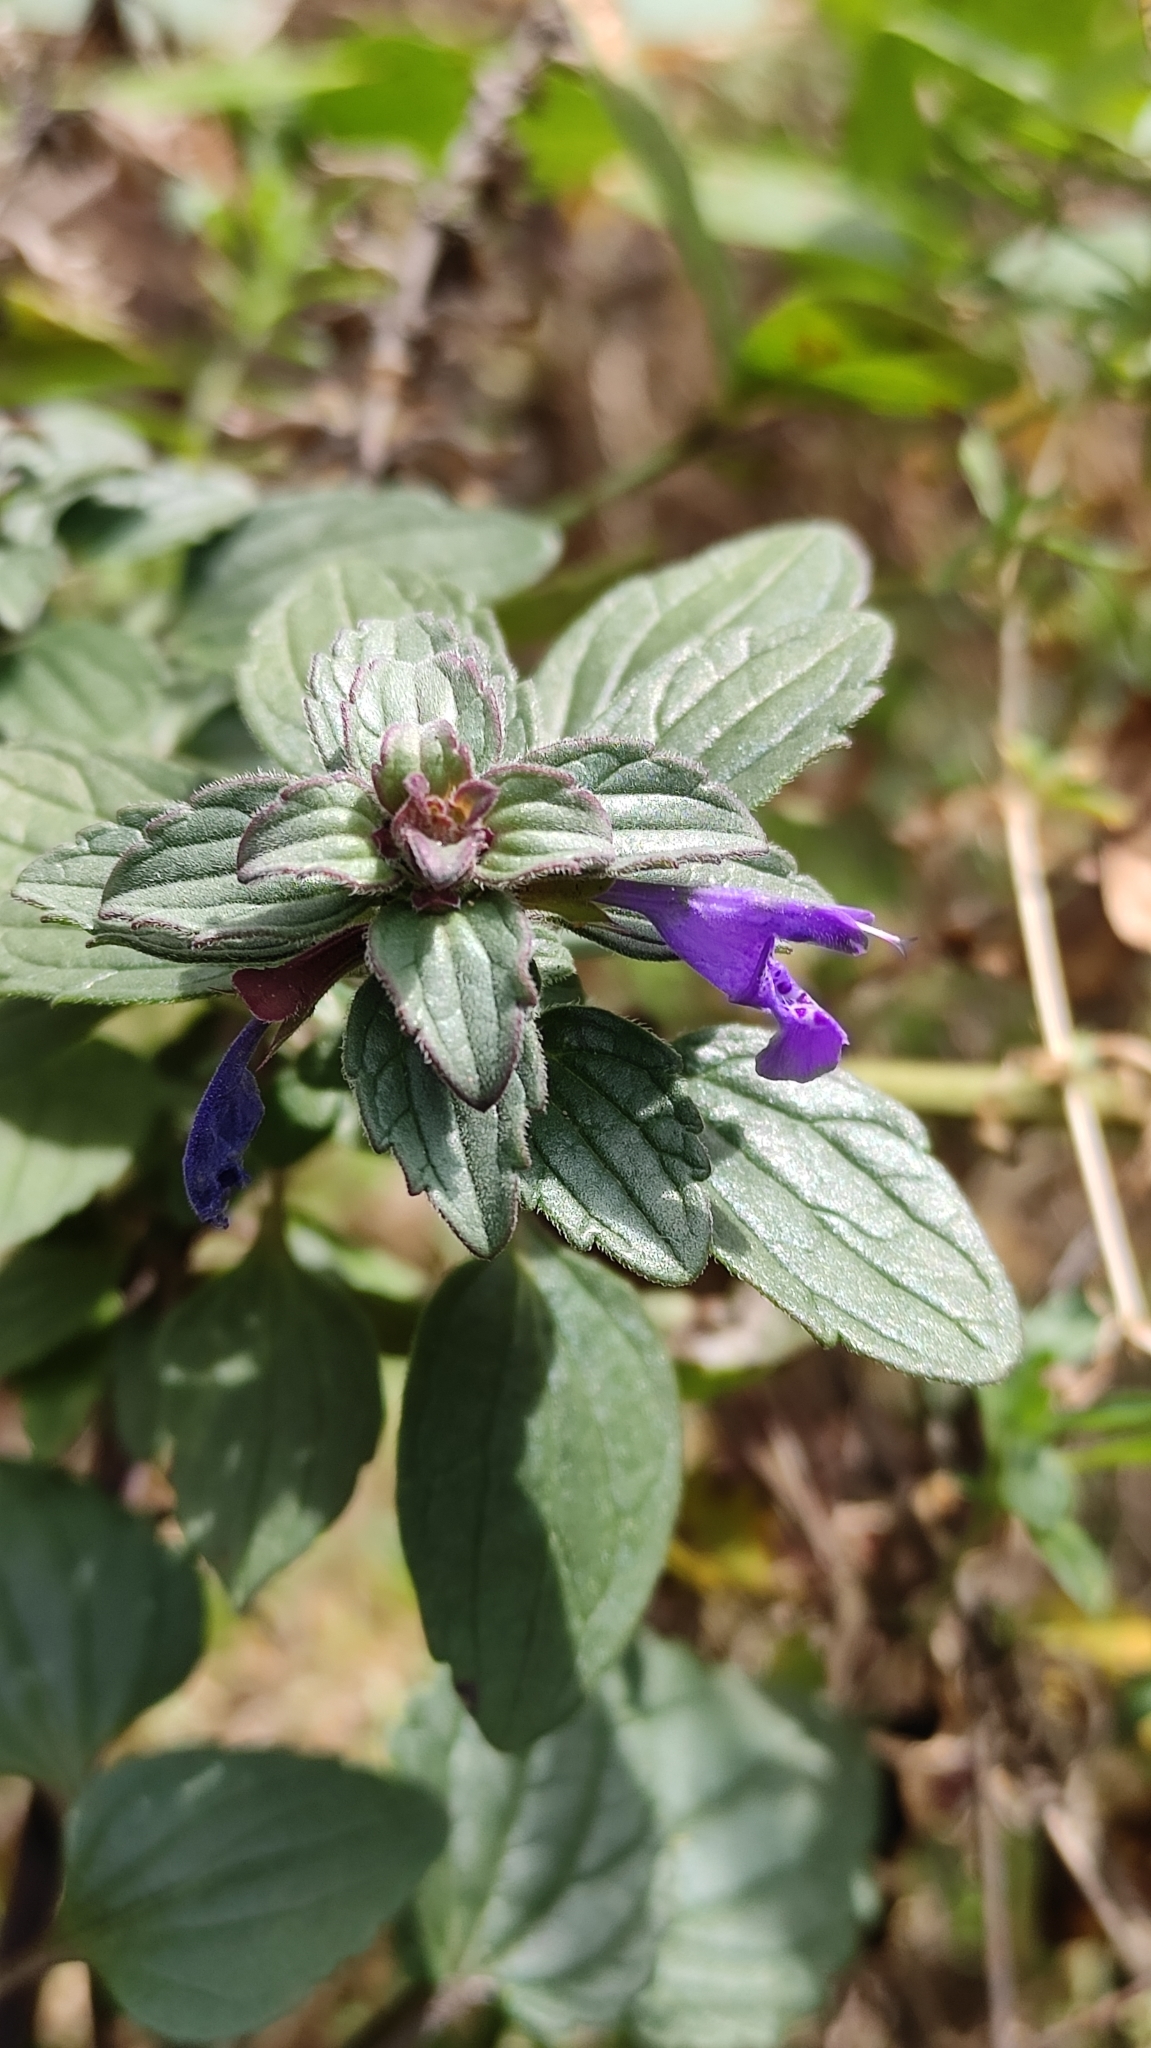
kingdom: Plantae
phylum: Tracheophyta
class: Magnoliopsida
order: Lamiales
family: Lamiaceae
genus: Dracocephalum
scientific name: Dracocephalum nutans
